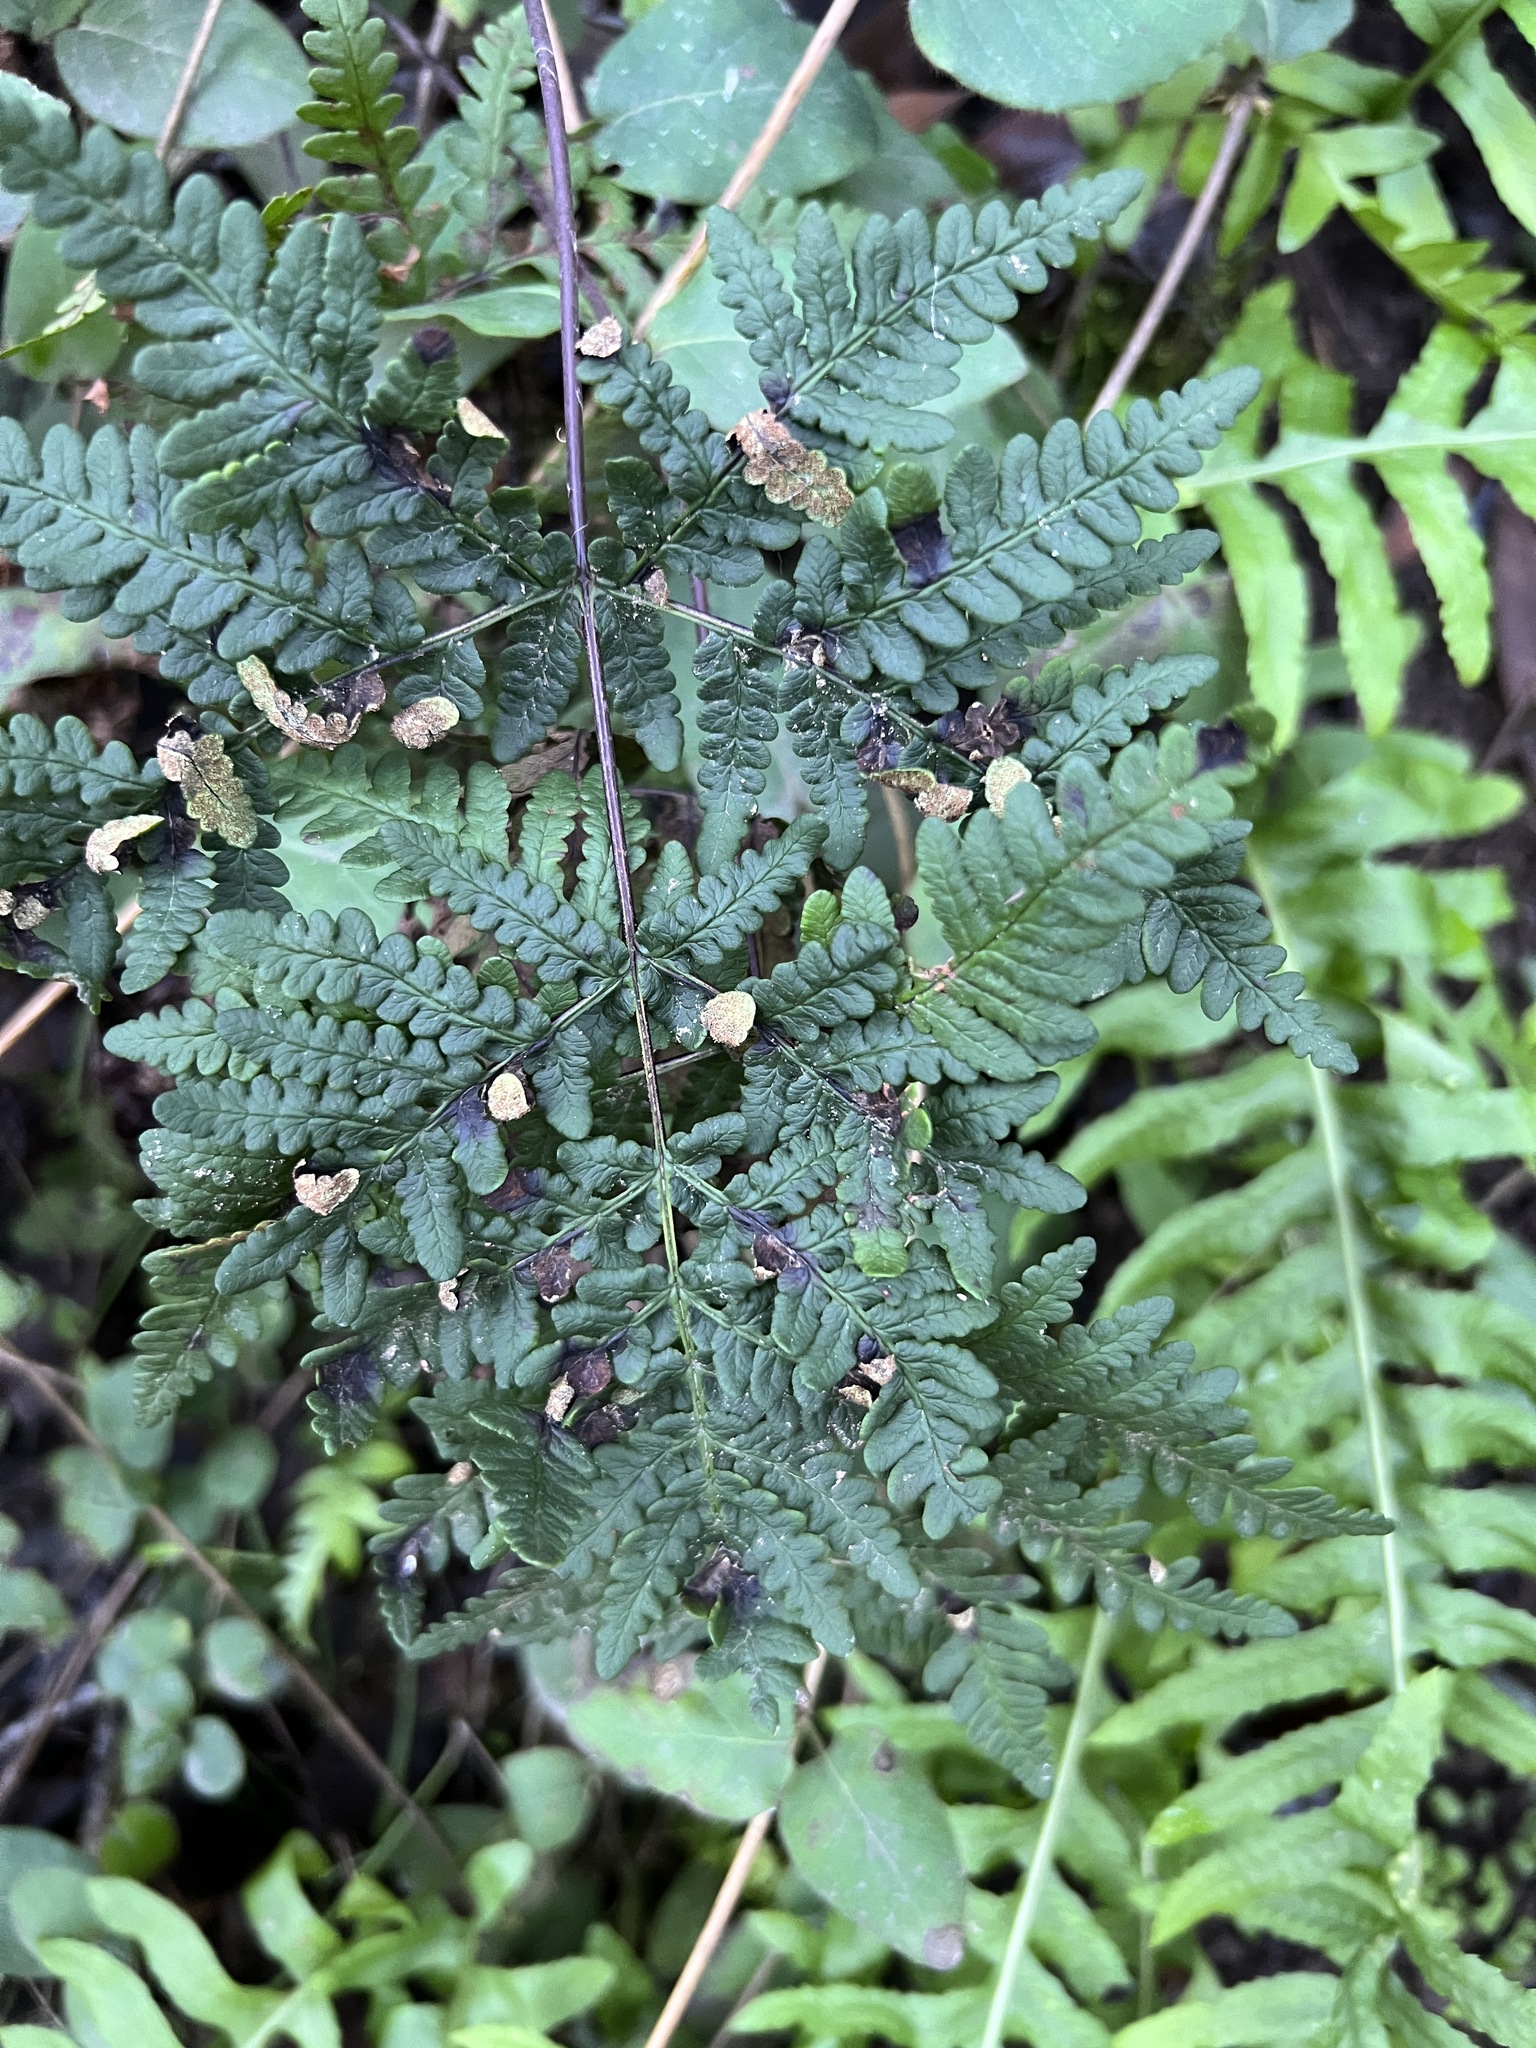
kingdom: Plantae
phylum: Tracheophyta
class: Polypodiopsida
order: Polypodiales
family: Pteridaceae
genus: Pentagramma
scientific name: Pentagramma triangularis
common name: Gold fern
